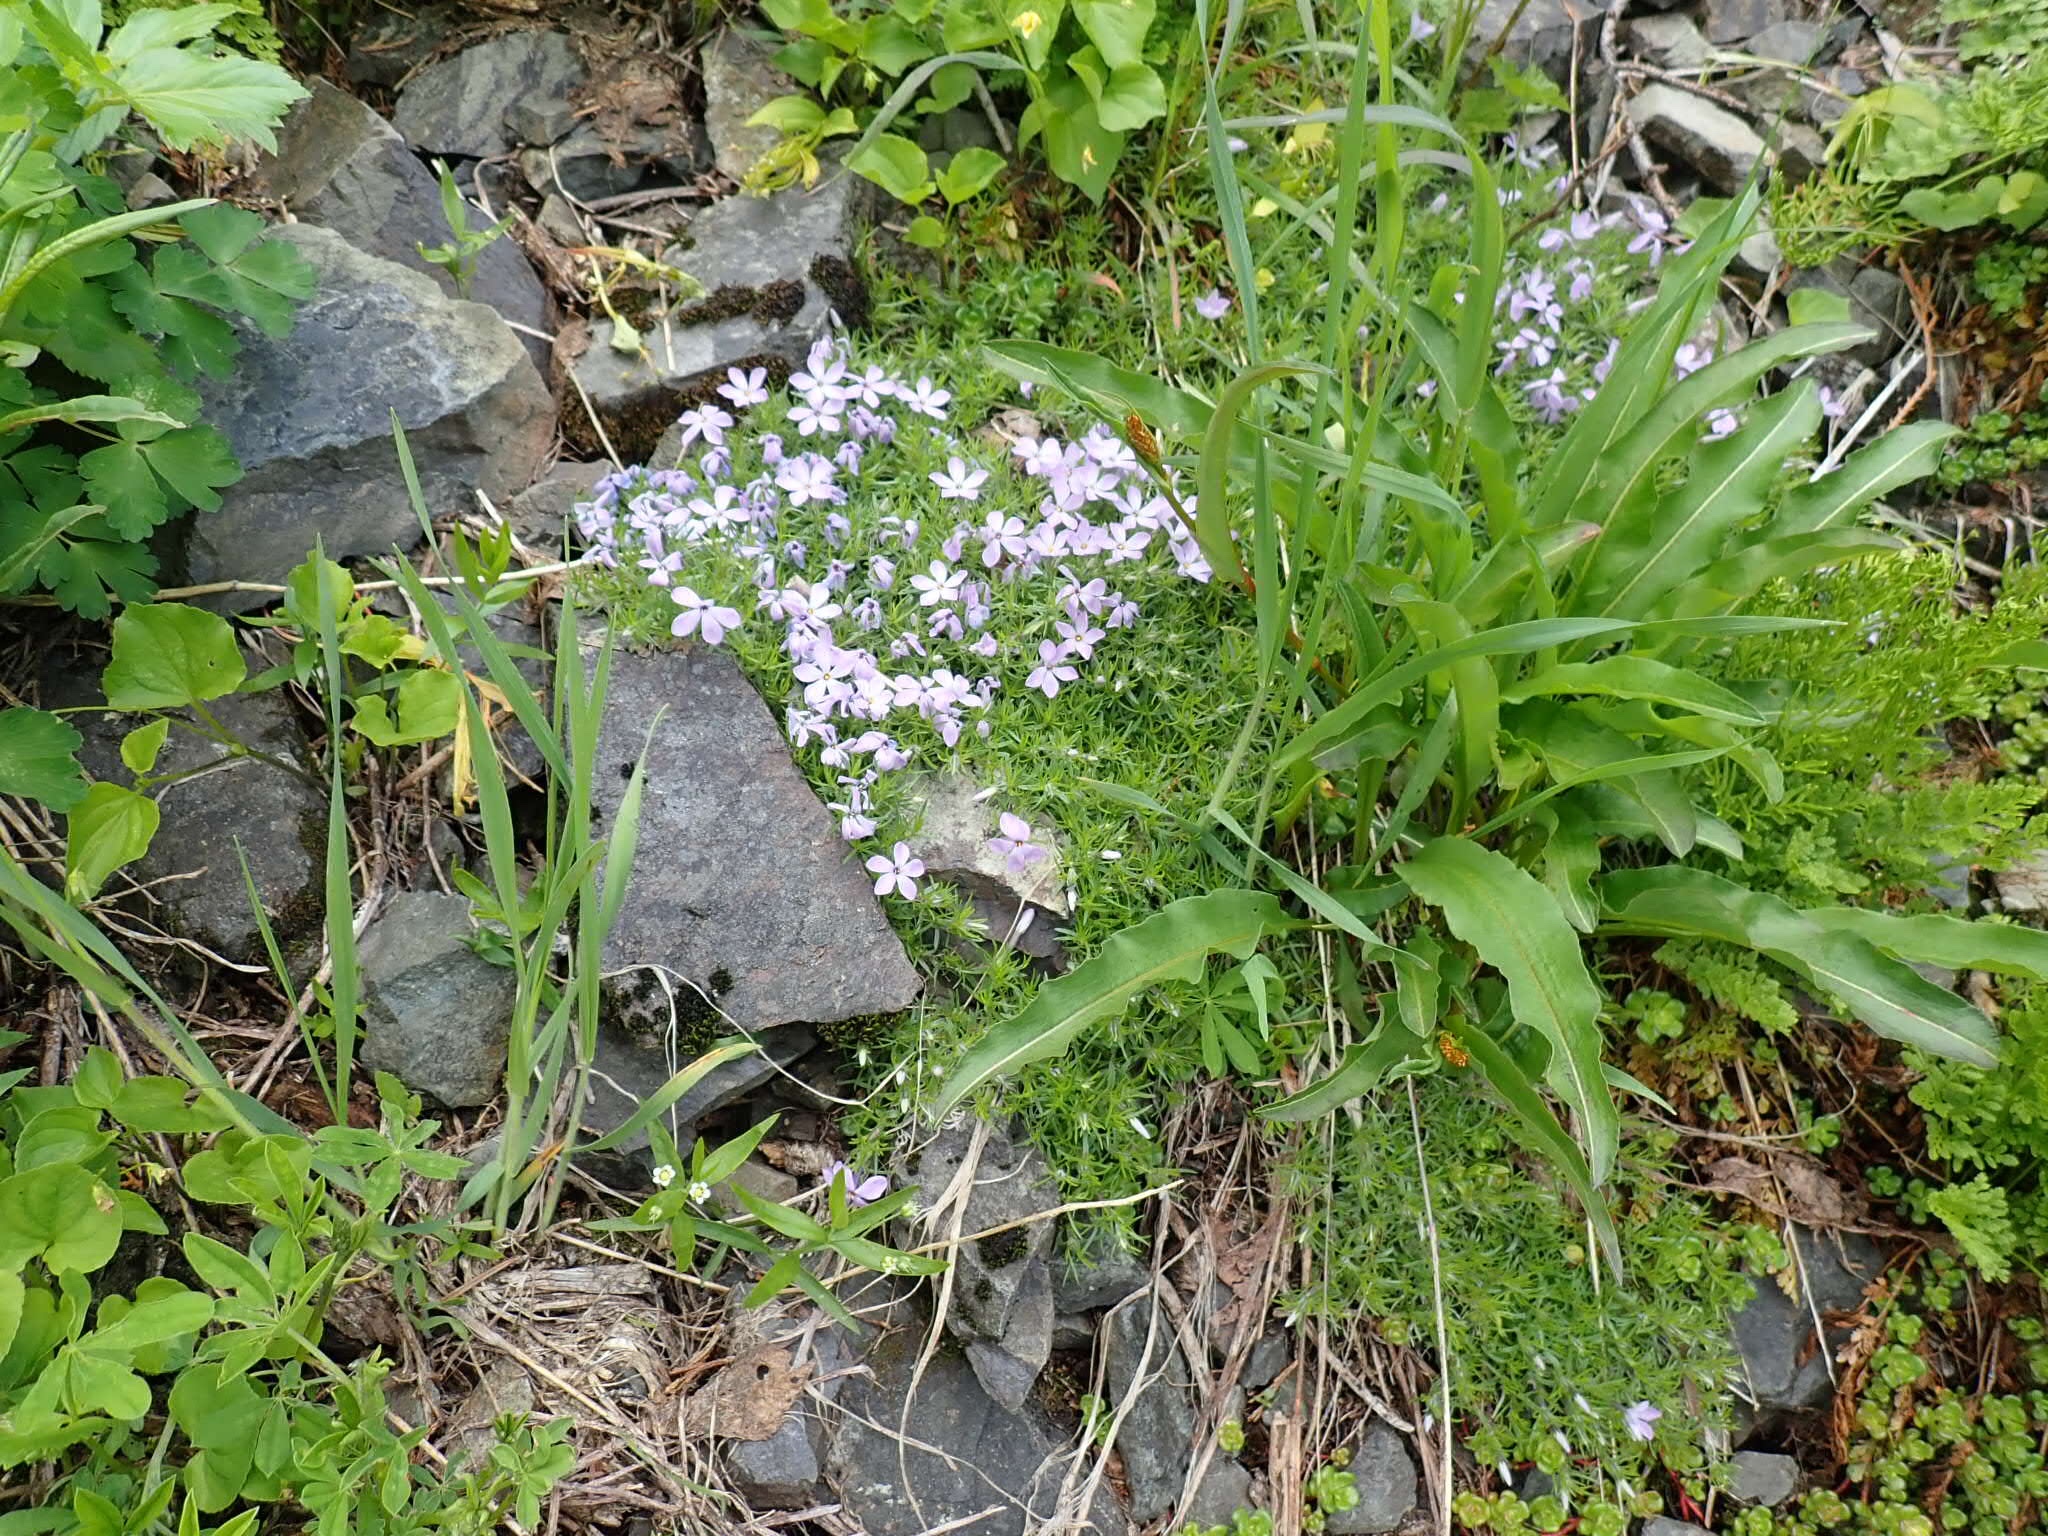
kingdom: Plantae
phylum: Tracheophyta
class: Magnoliopsida
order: Ericales
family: Polemoniaceae
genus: Phlox
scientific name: Phlox diffusa
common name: Mat phlox
